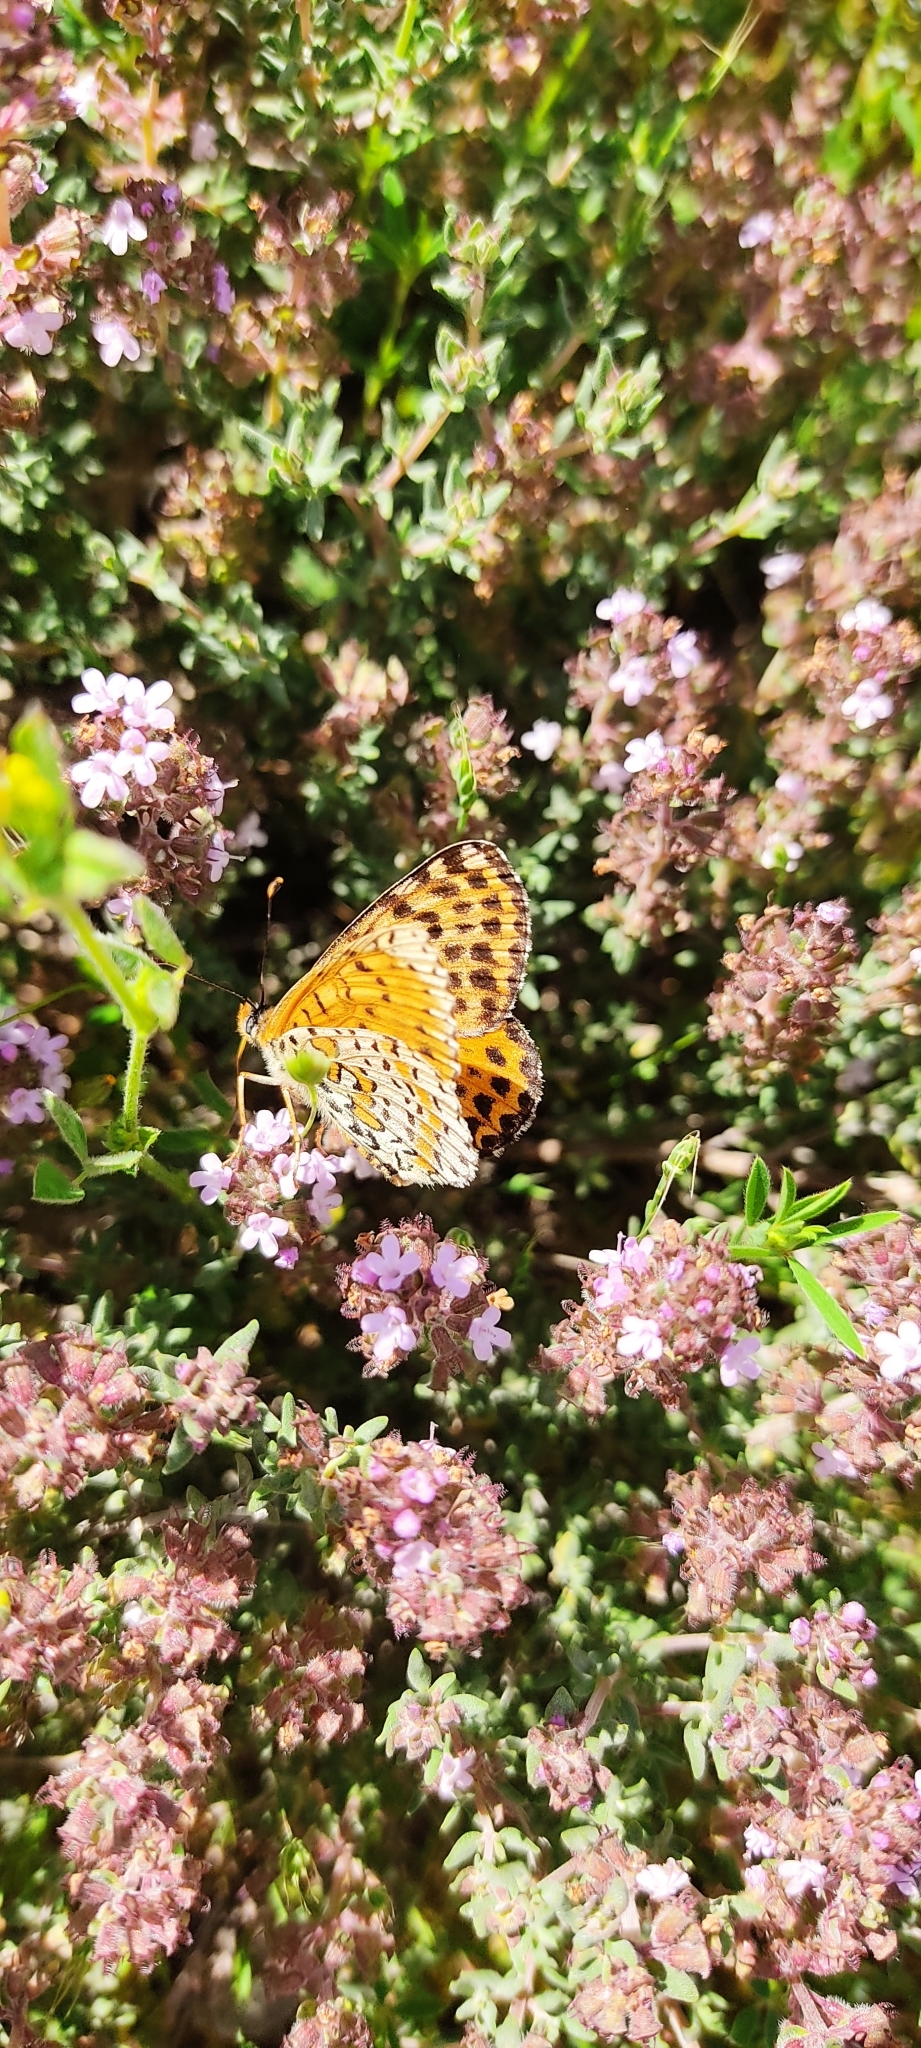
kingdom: Animalia
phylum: Arthropoda
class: Insecta
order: Lepidoptera
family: Nymphalidae
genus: Melitaea
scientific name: Melitaea didyma
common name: Spotted fritillary
